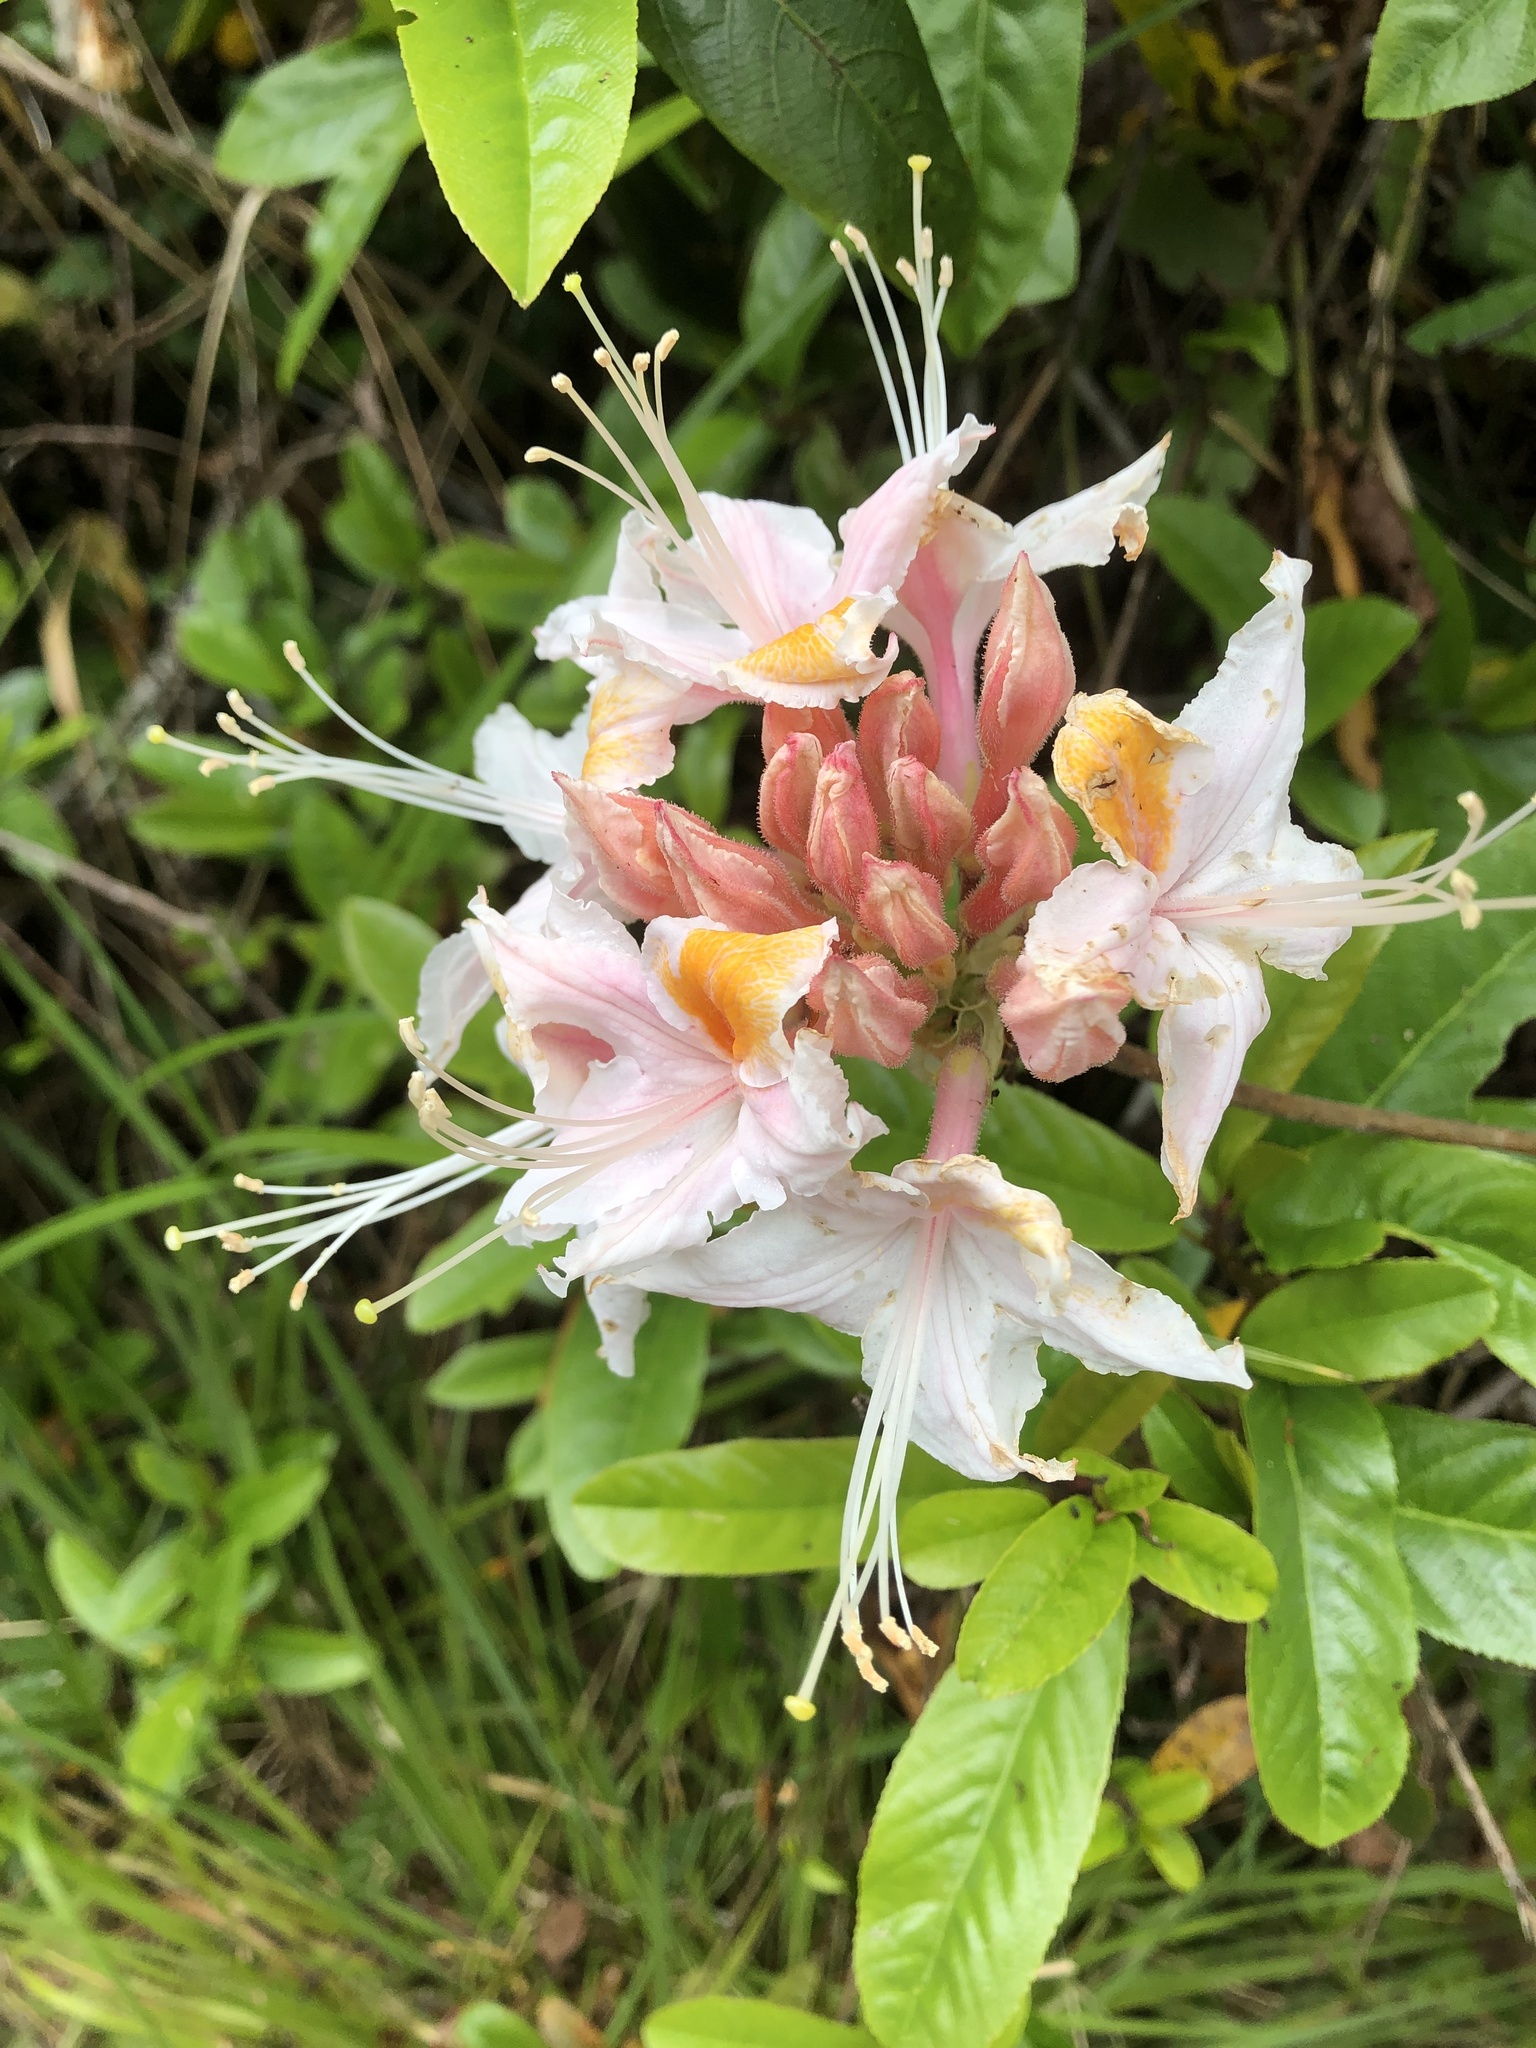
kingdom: Plantae
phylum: Tracheophyta
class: Magnoliopsida
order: Ericales
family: Ericaceae
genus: Rhododendron
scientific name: Rhododendron occidentale
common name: Western azalea
